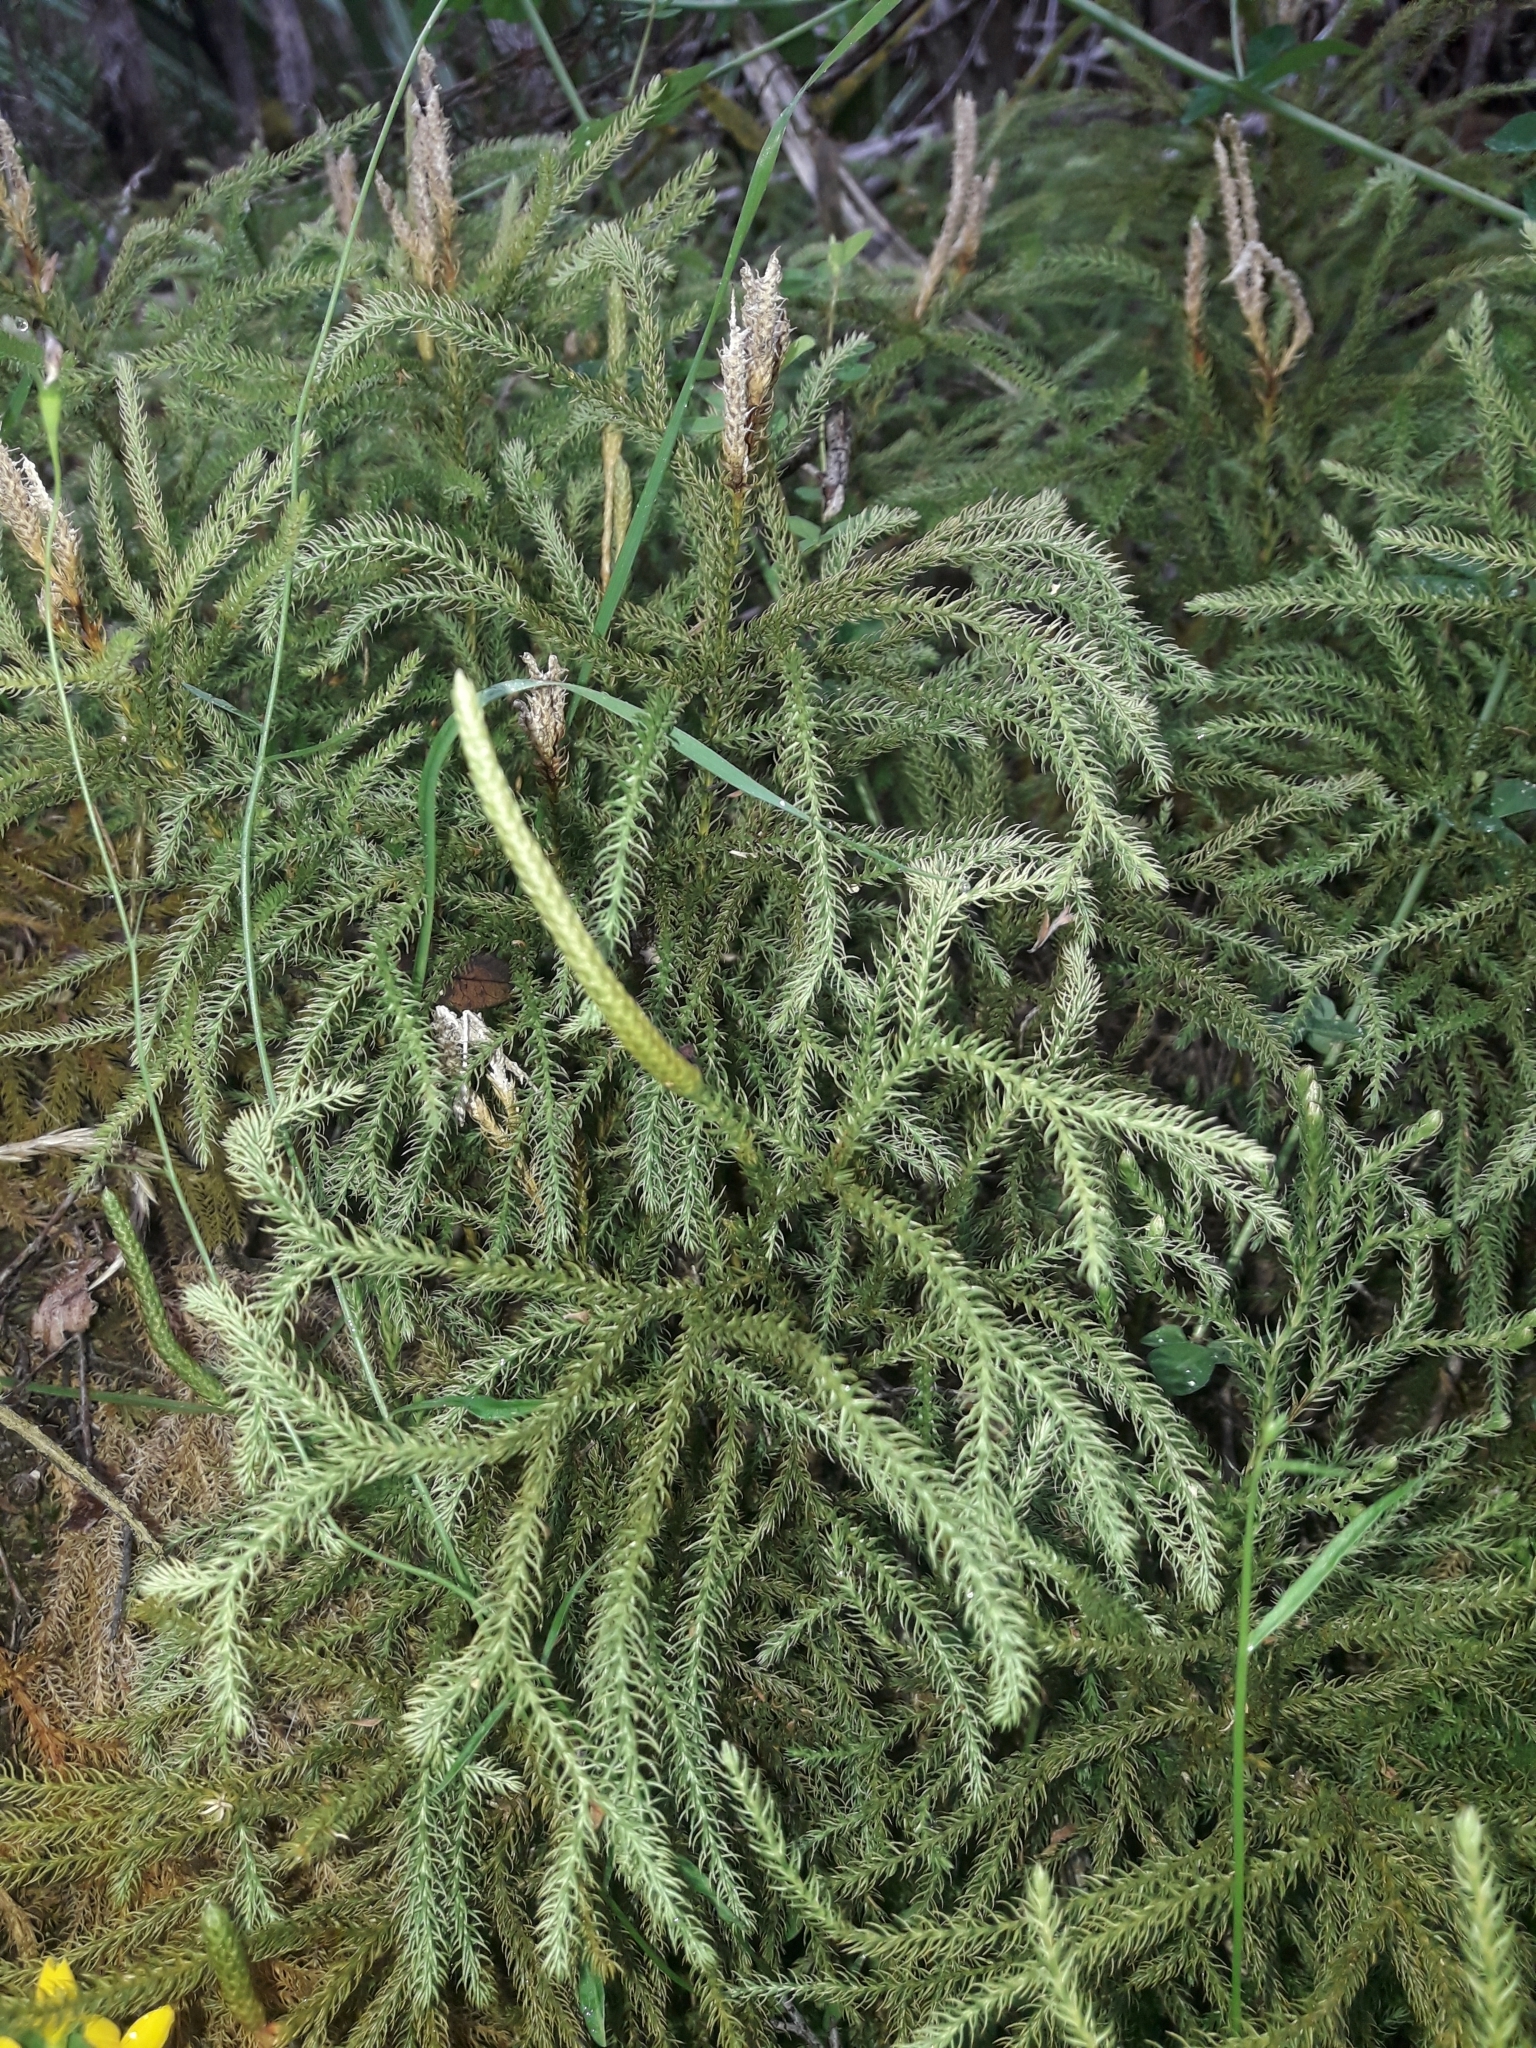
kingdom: Plantae
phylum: Tracheophyta
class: Lycopodiopsida
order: Lycopodiales
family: Lycopodiaceae
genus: Austrolycopodium
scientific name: Austrolycopodium fastigiatum
